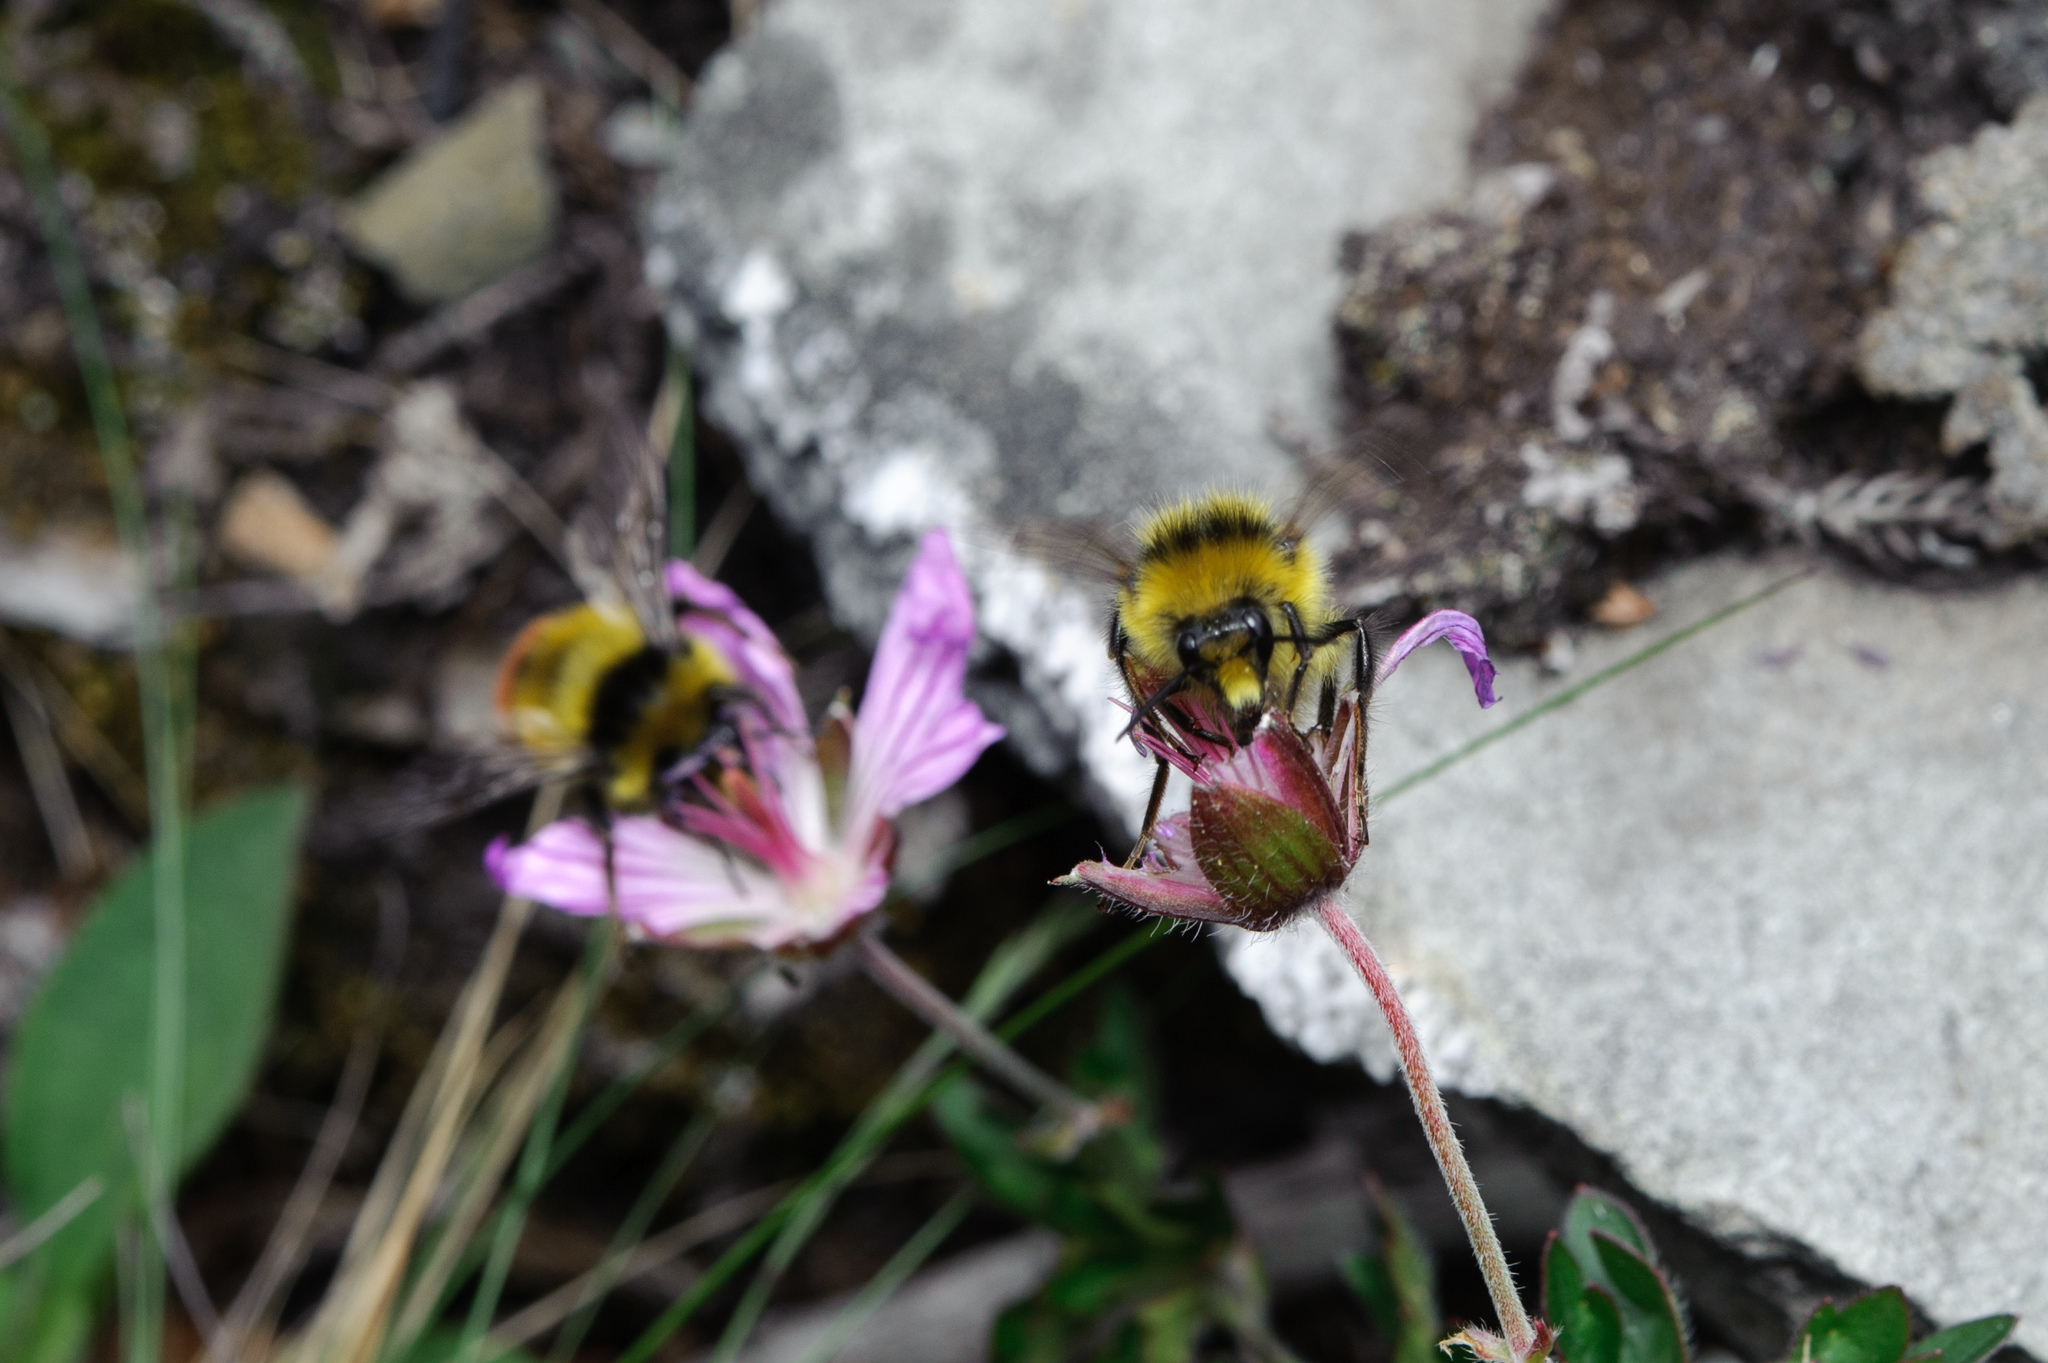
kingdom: Animalia
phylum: Arthropoda
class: Insecta
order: Hymenoptera
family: Apidae
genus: Bombus
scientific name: Bombus formosellus
